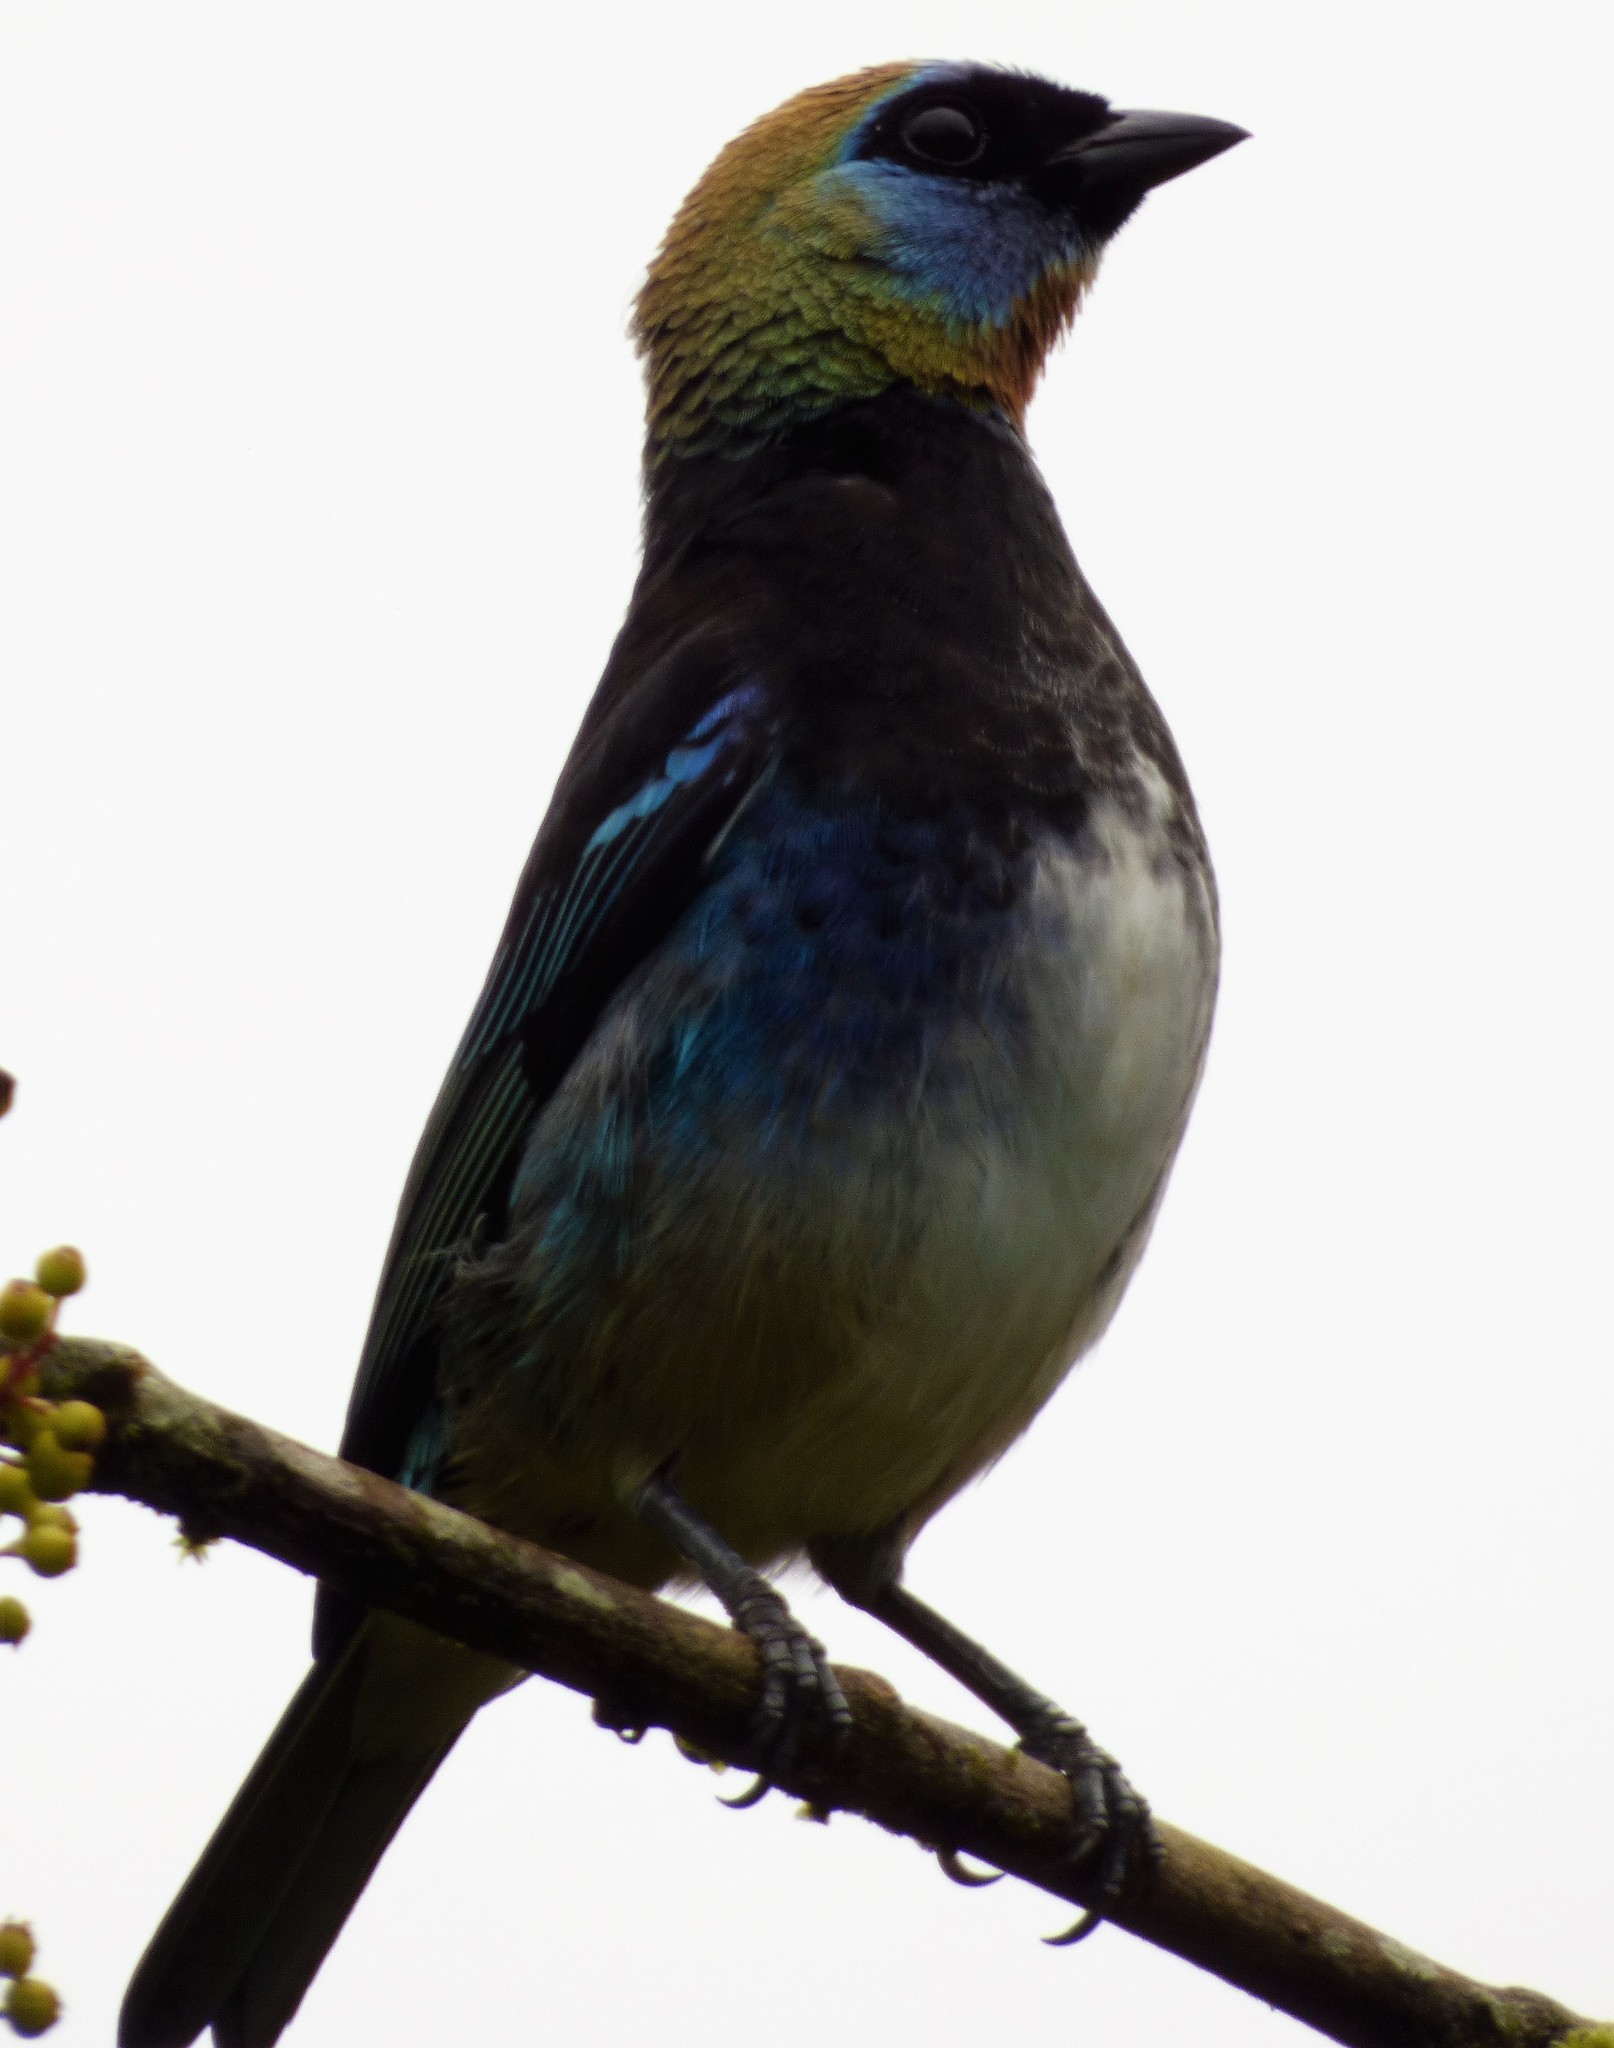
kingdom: Animalia
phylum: Chordata
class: Aves
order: Passeriformes
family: Thraupidae
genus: Stilpnia
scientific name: Stilpnia larvata
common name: Golden-hooded tanager
